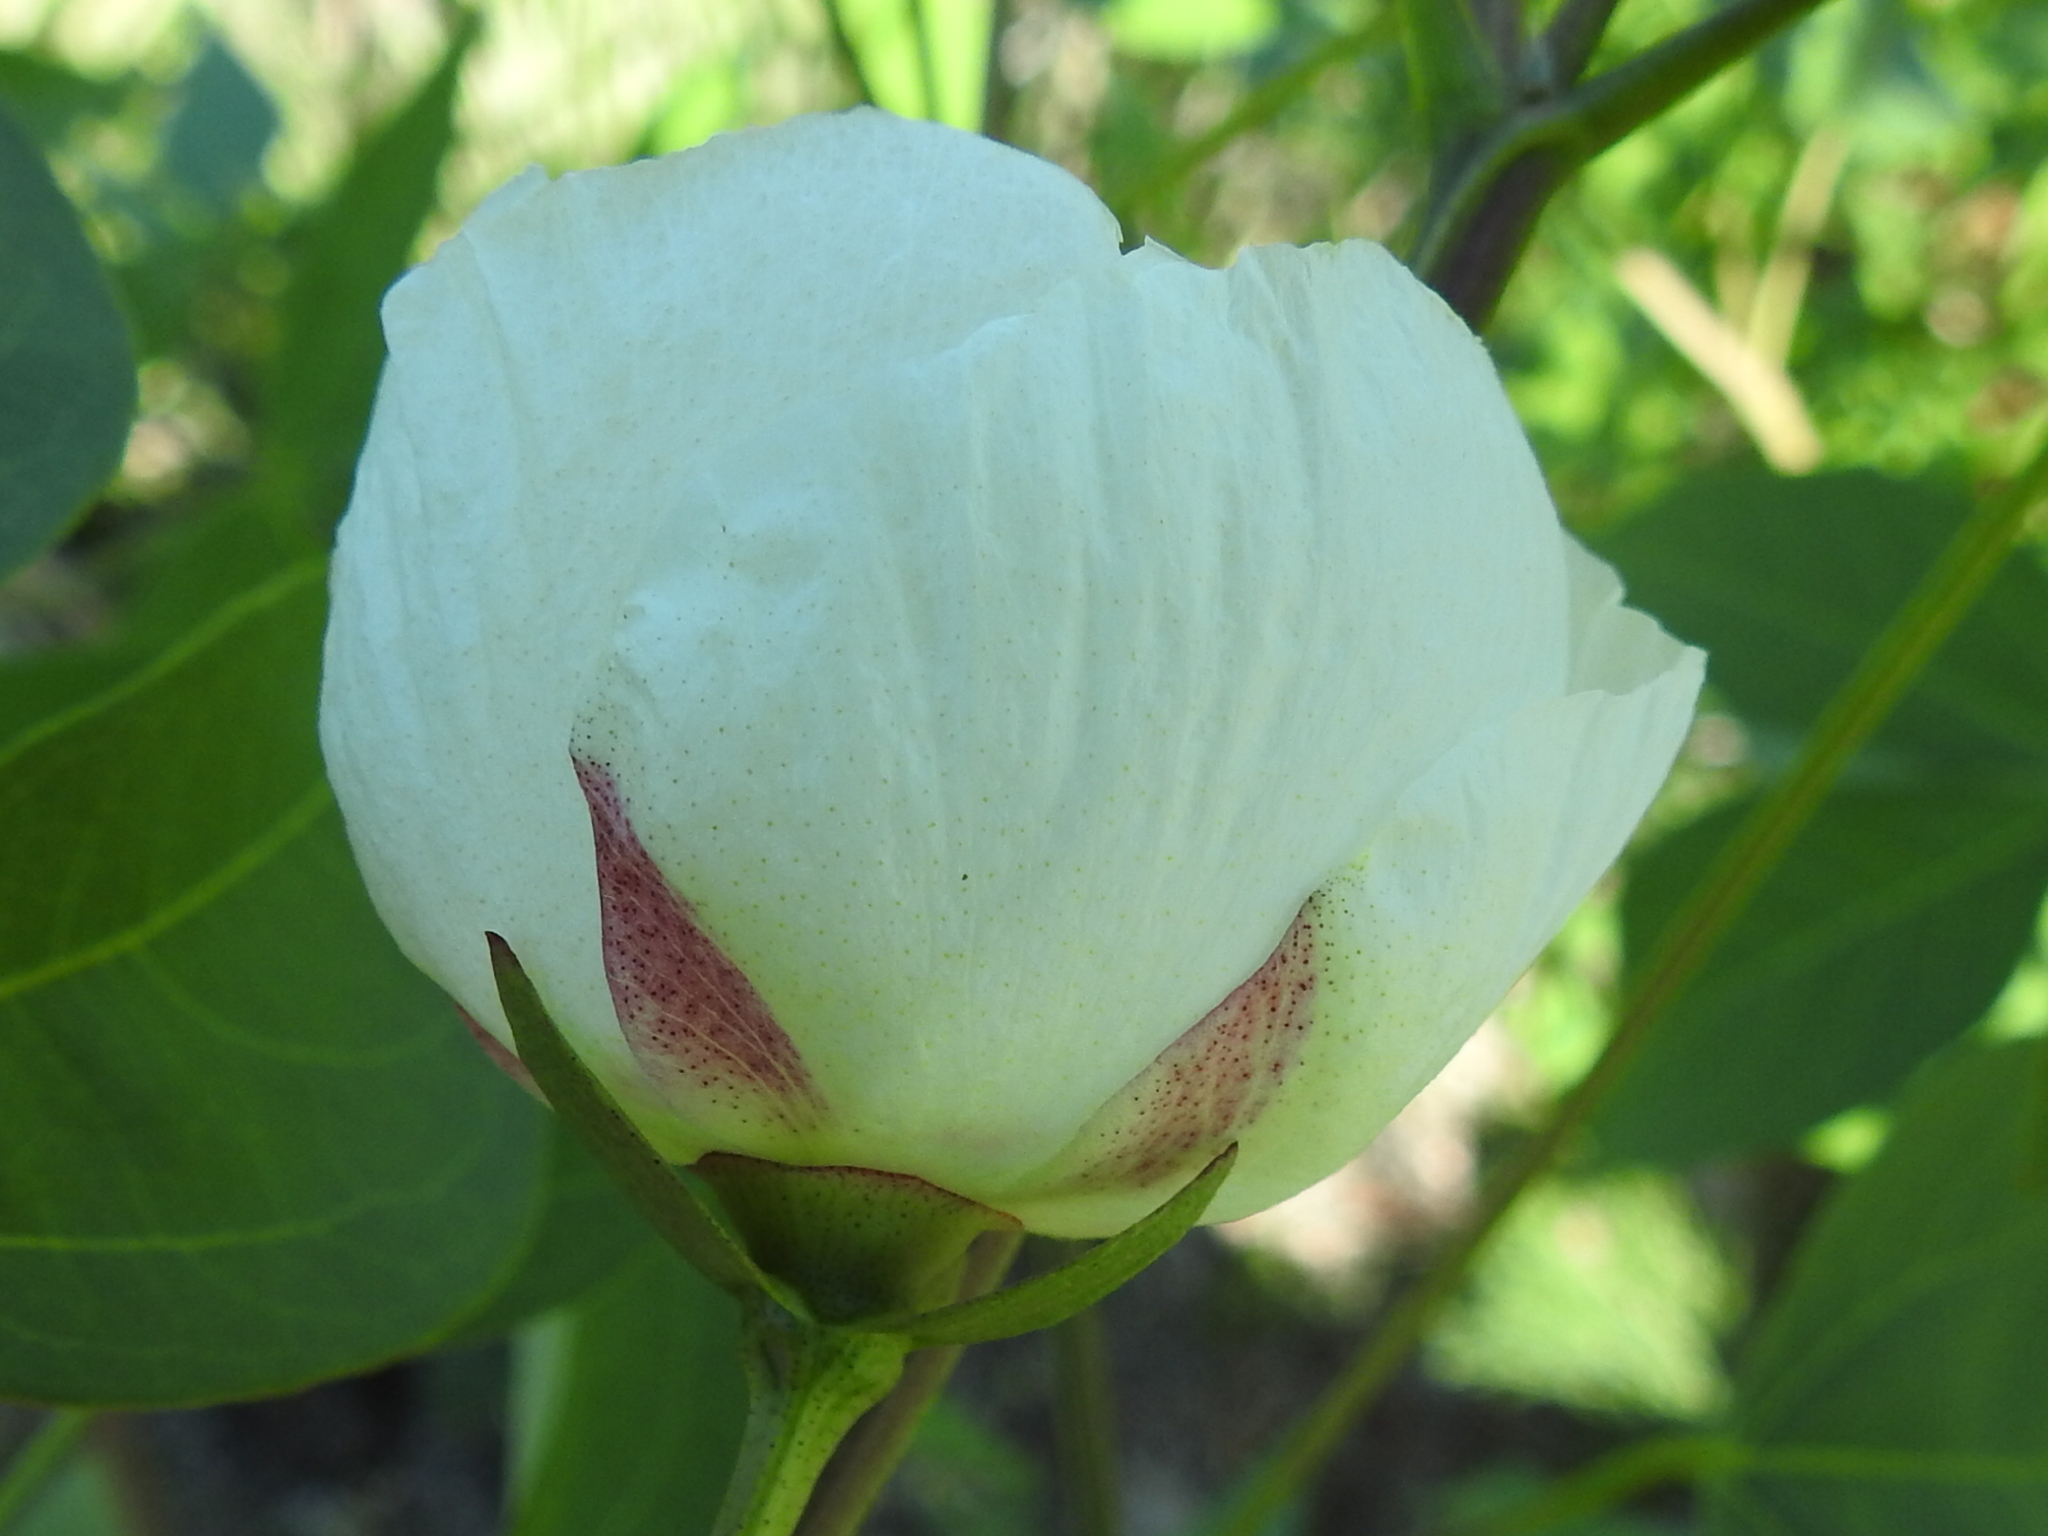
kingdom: Plantae
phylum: Tracheophyta
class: Magnoliopsida
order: Malvales
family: Malvaceae
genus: Gossypium
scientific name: Gossypium thurberi
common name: Desert cotton
